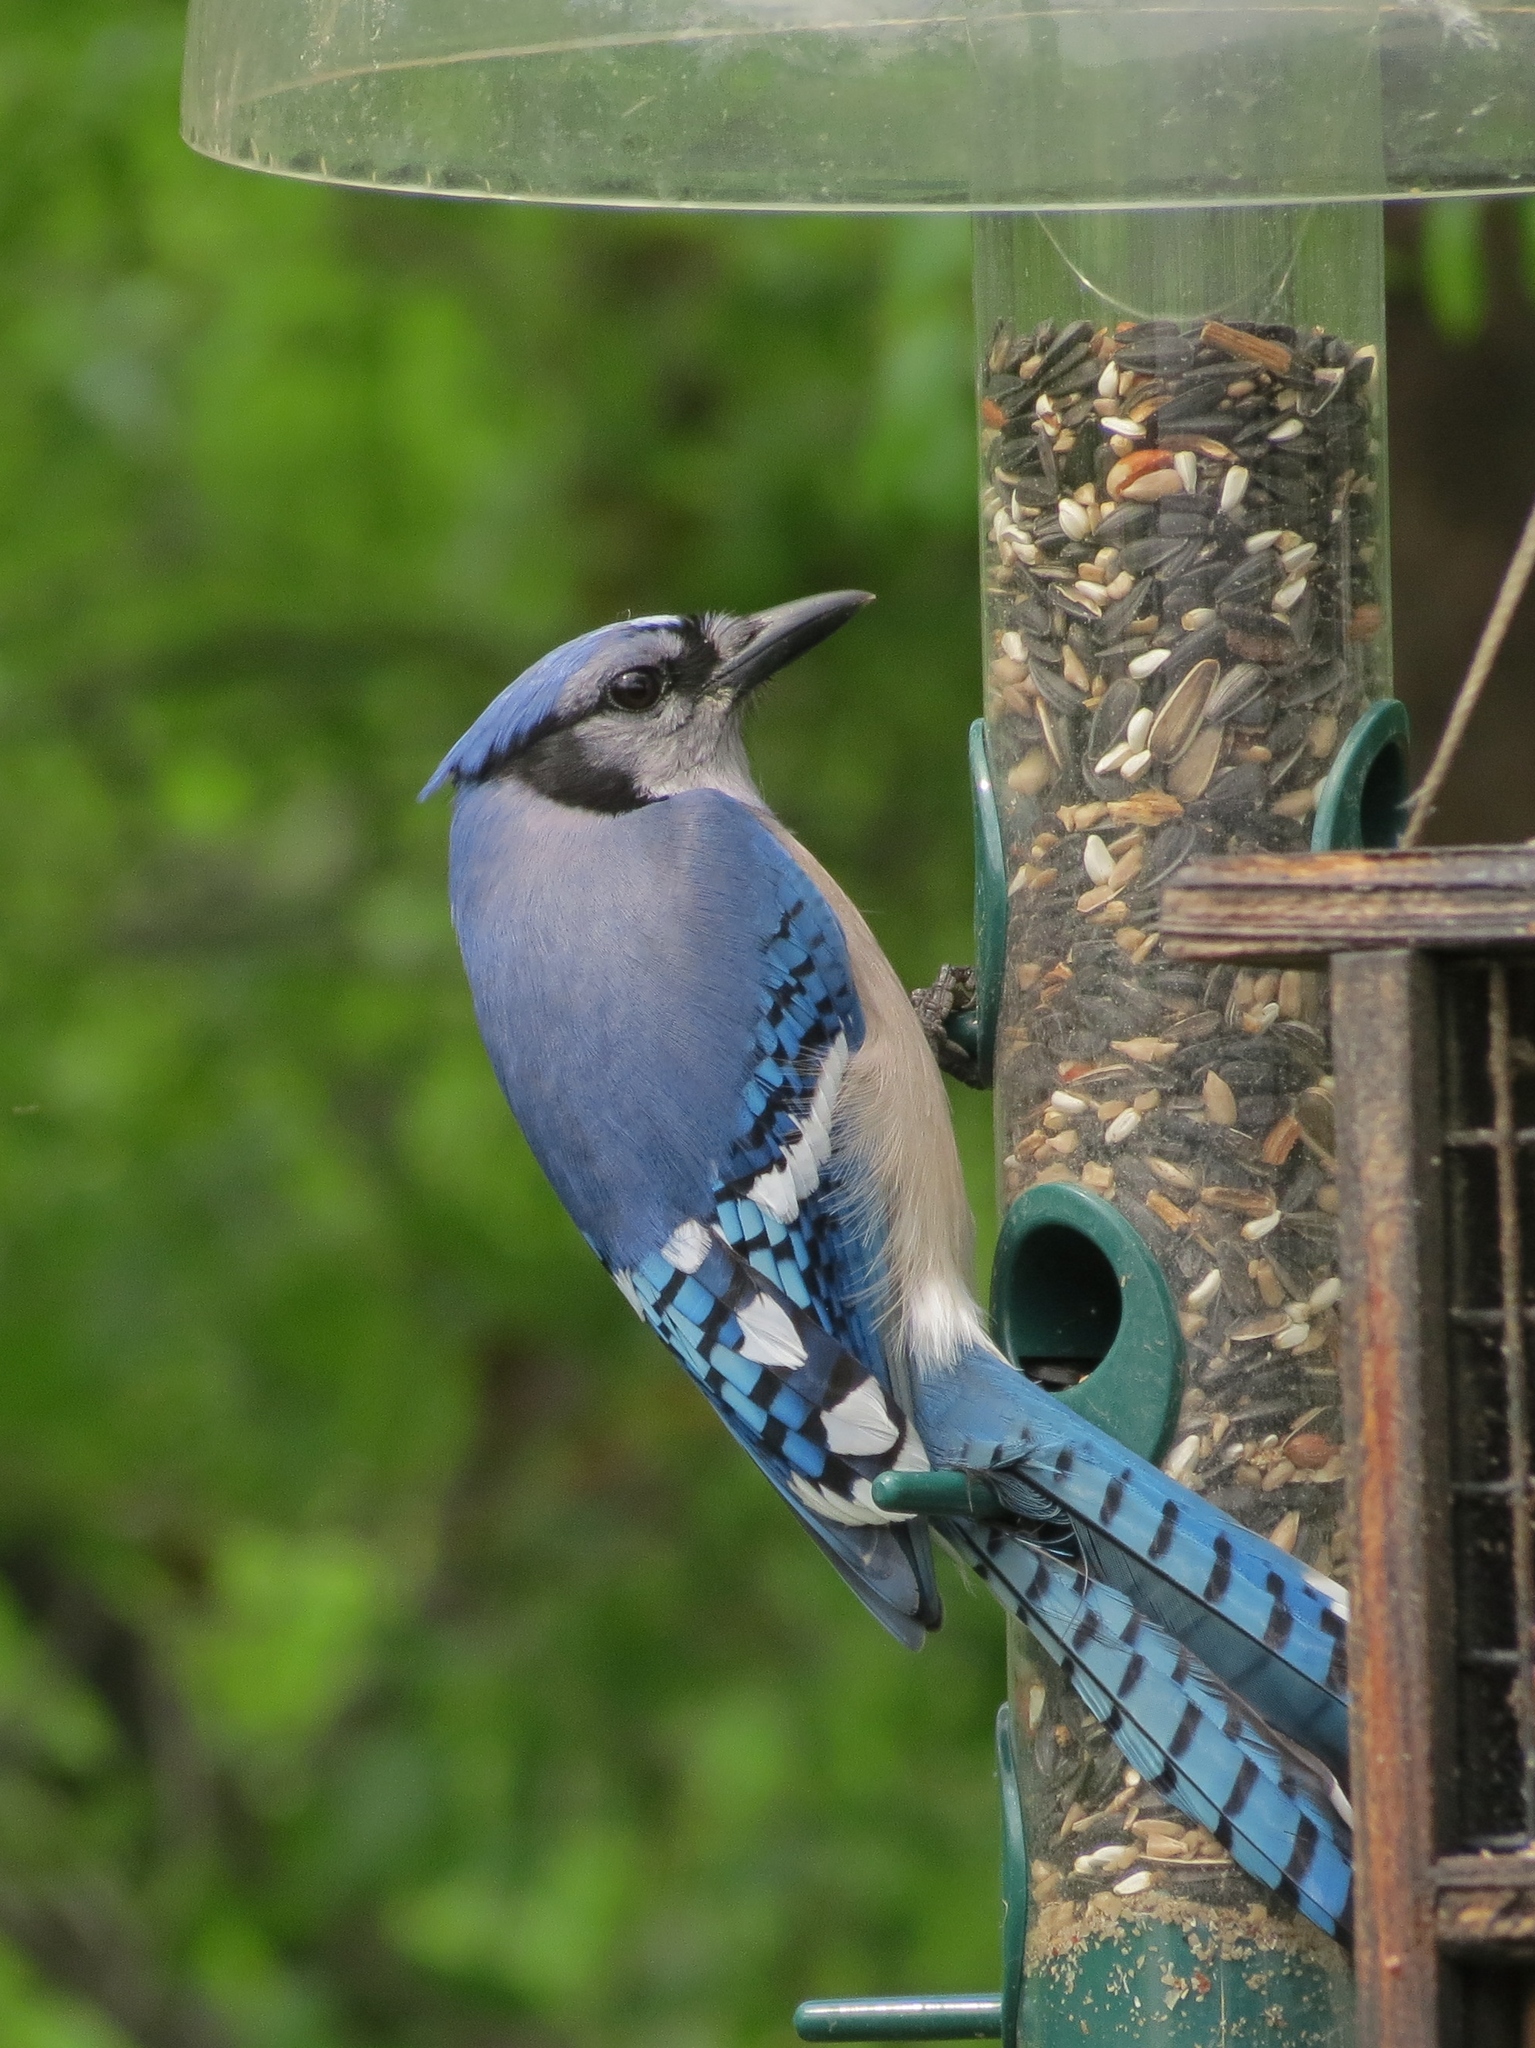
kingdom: Animalia
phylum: Chordata
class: Aves
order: Passeriformes
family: Corvidae
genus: Cyanocitta
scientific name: Cyanocitta cristata
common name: Blue jay
